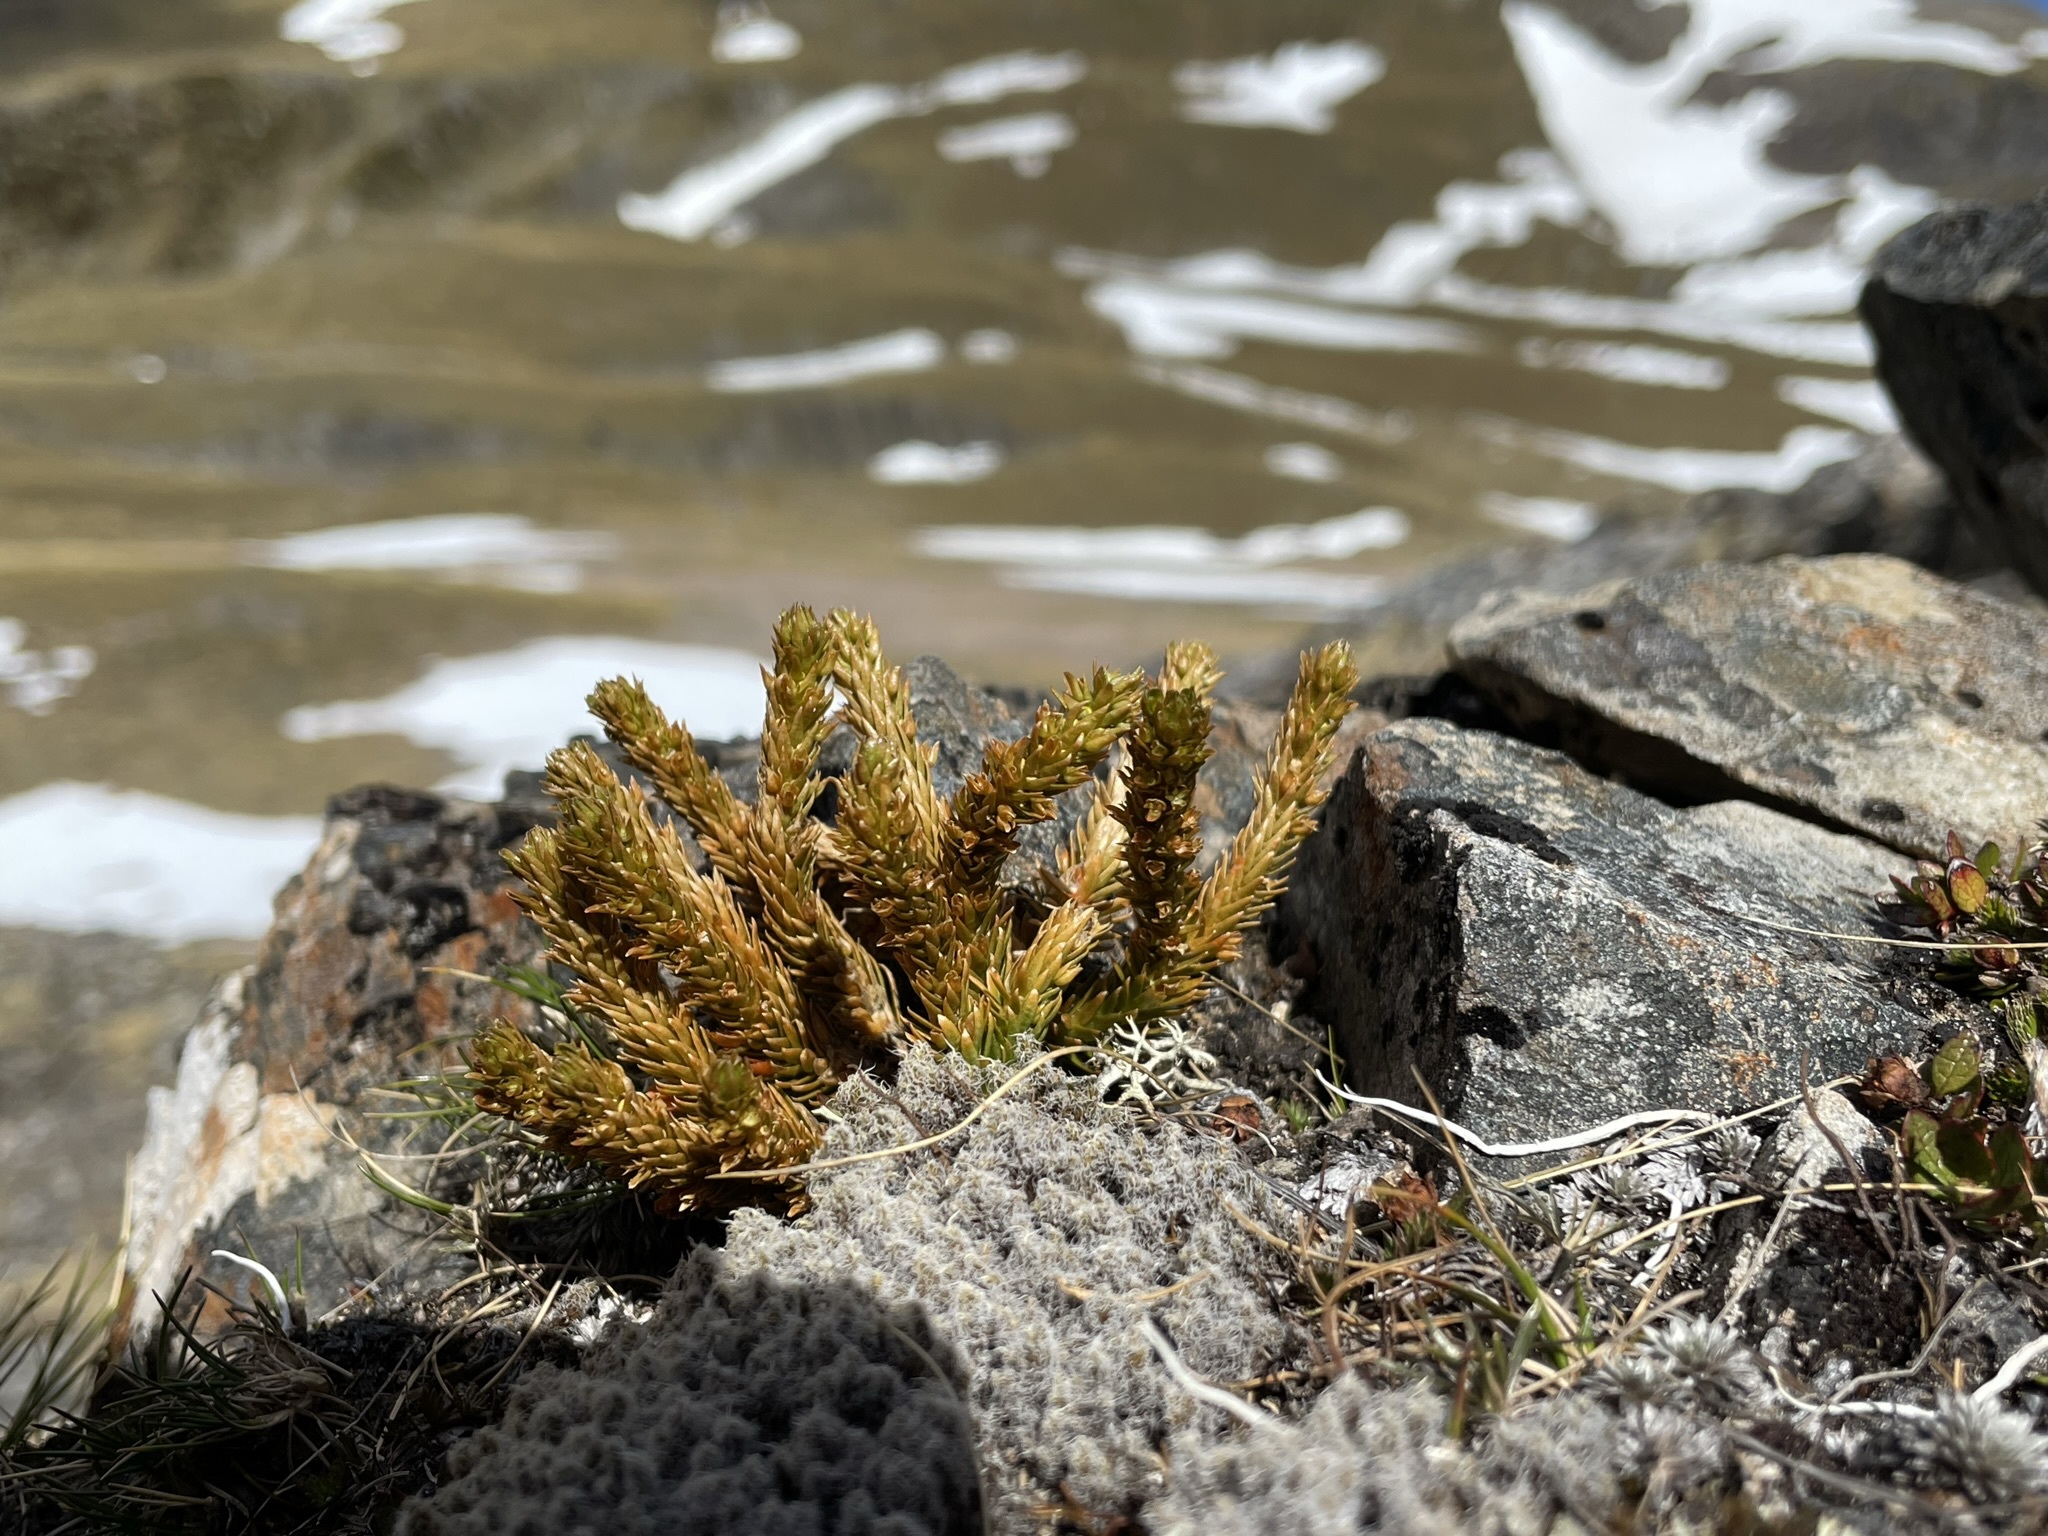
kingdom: Plantae
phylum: Tracheophyta
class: Lycopodiopsida
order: Lycopodiales
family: Lycopodiaceae
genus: Huperzia
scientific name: Huperzia australiana
